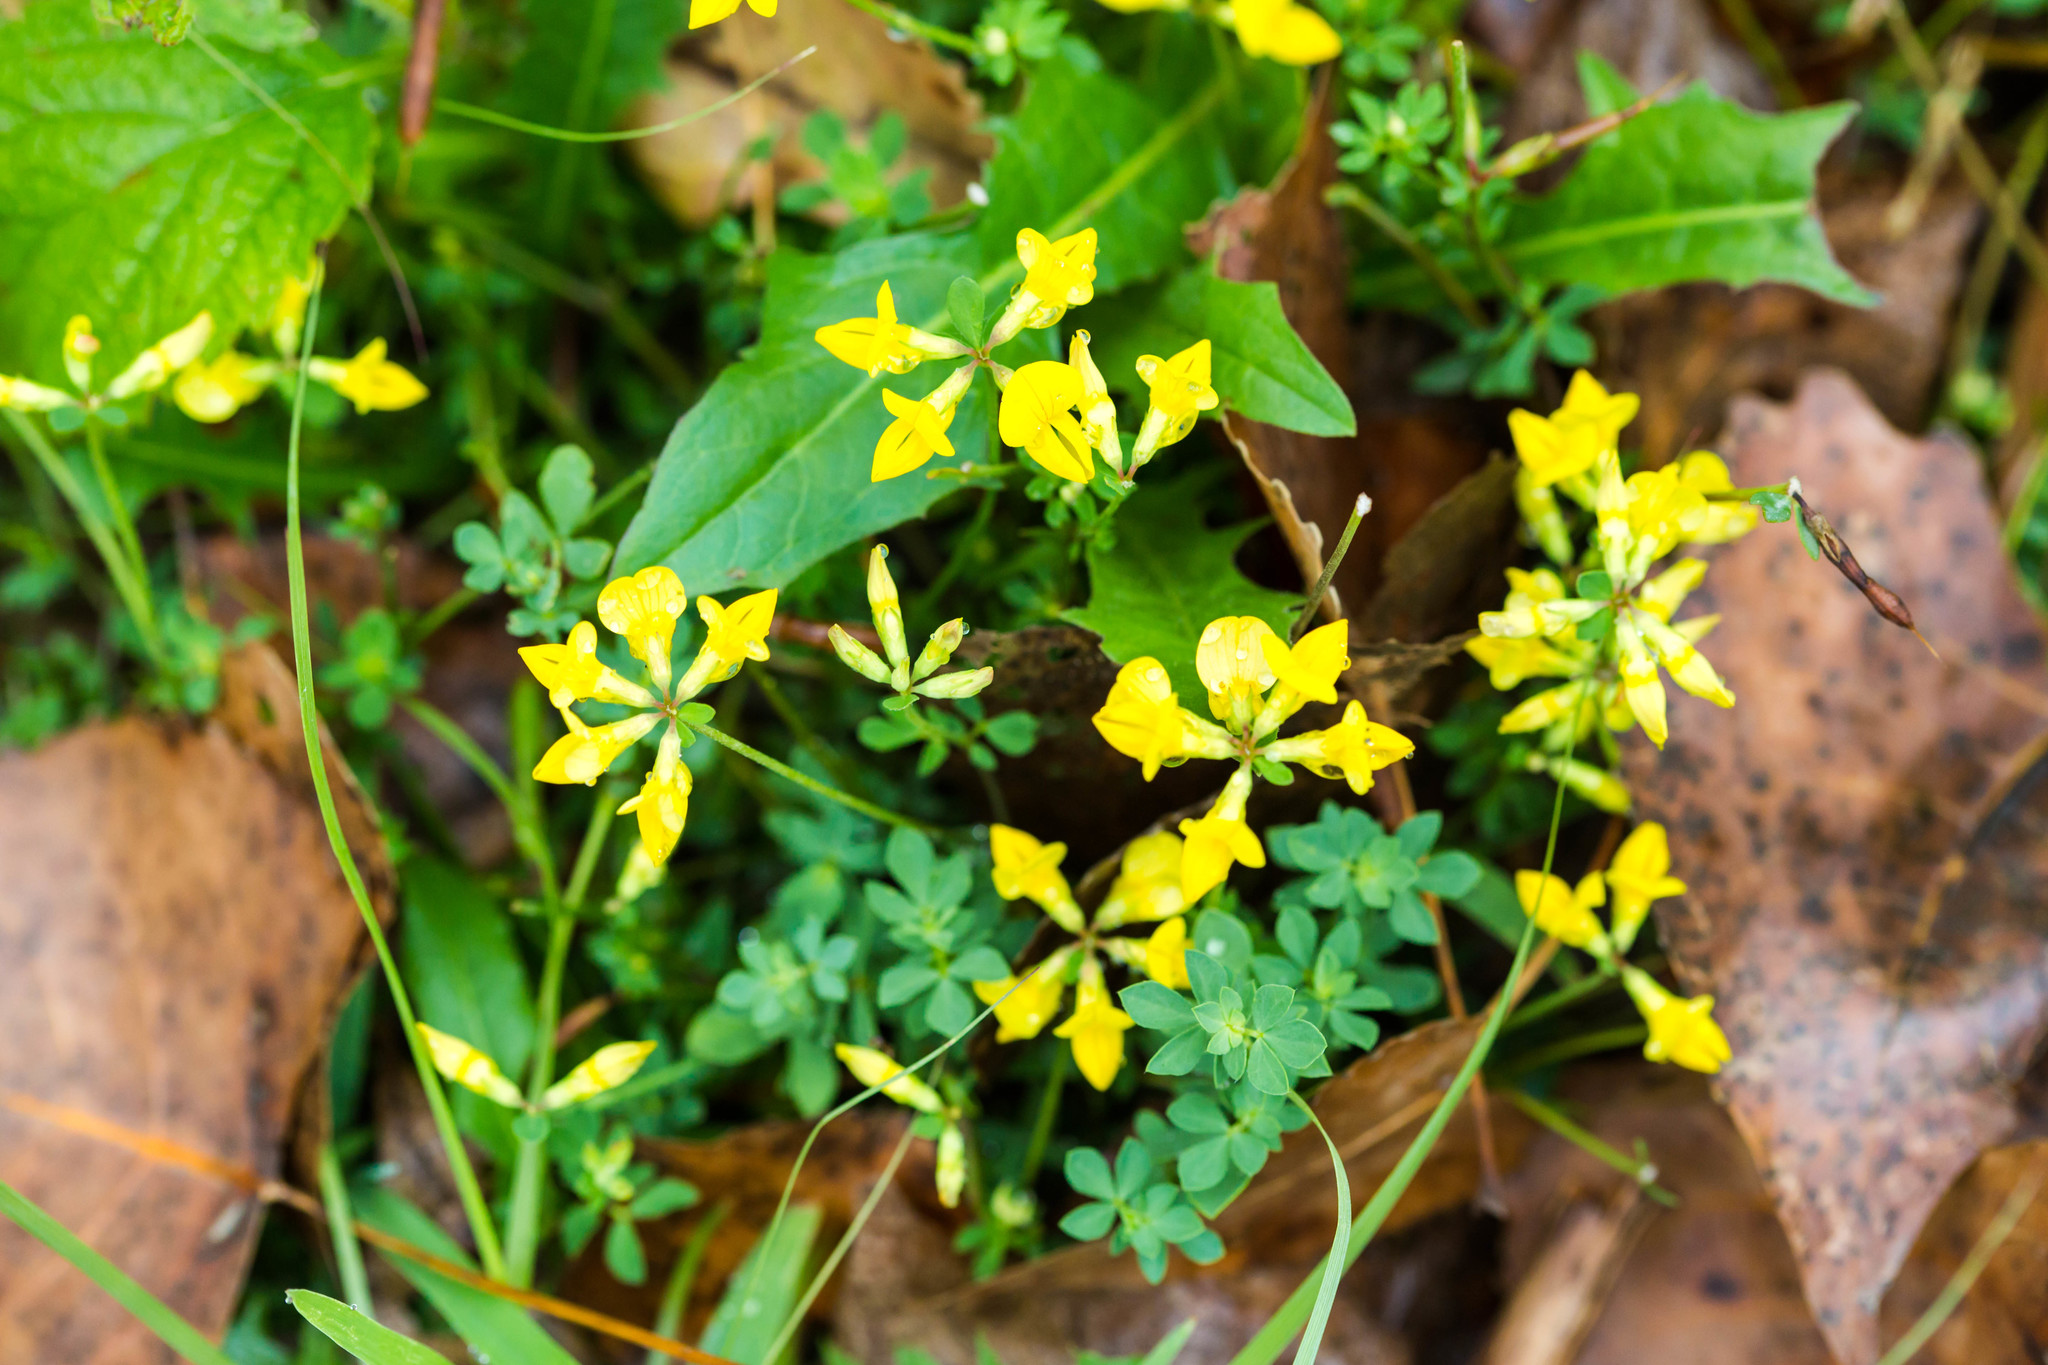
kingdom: Plantae
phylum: Tracheophyta
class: Magnoliopsida
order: Fabales
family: Fabaceae
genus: Lotus
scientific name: Lotus corniculatus
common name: Common bird's-foot-trefoil
